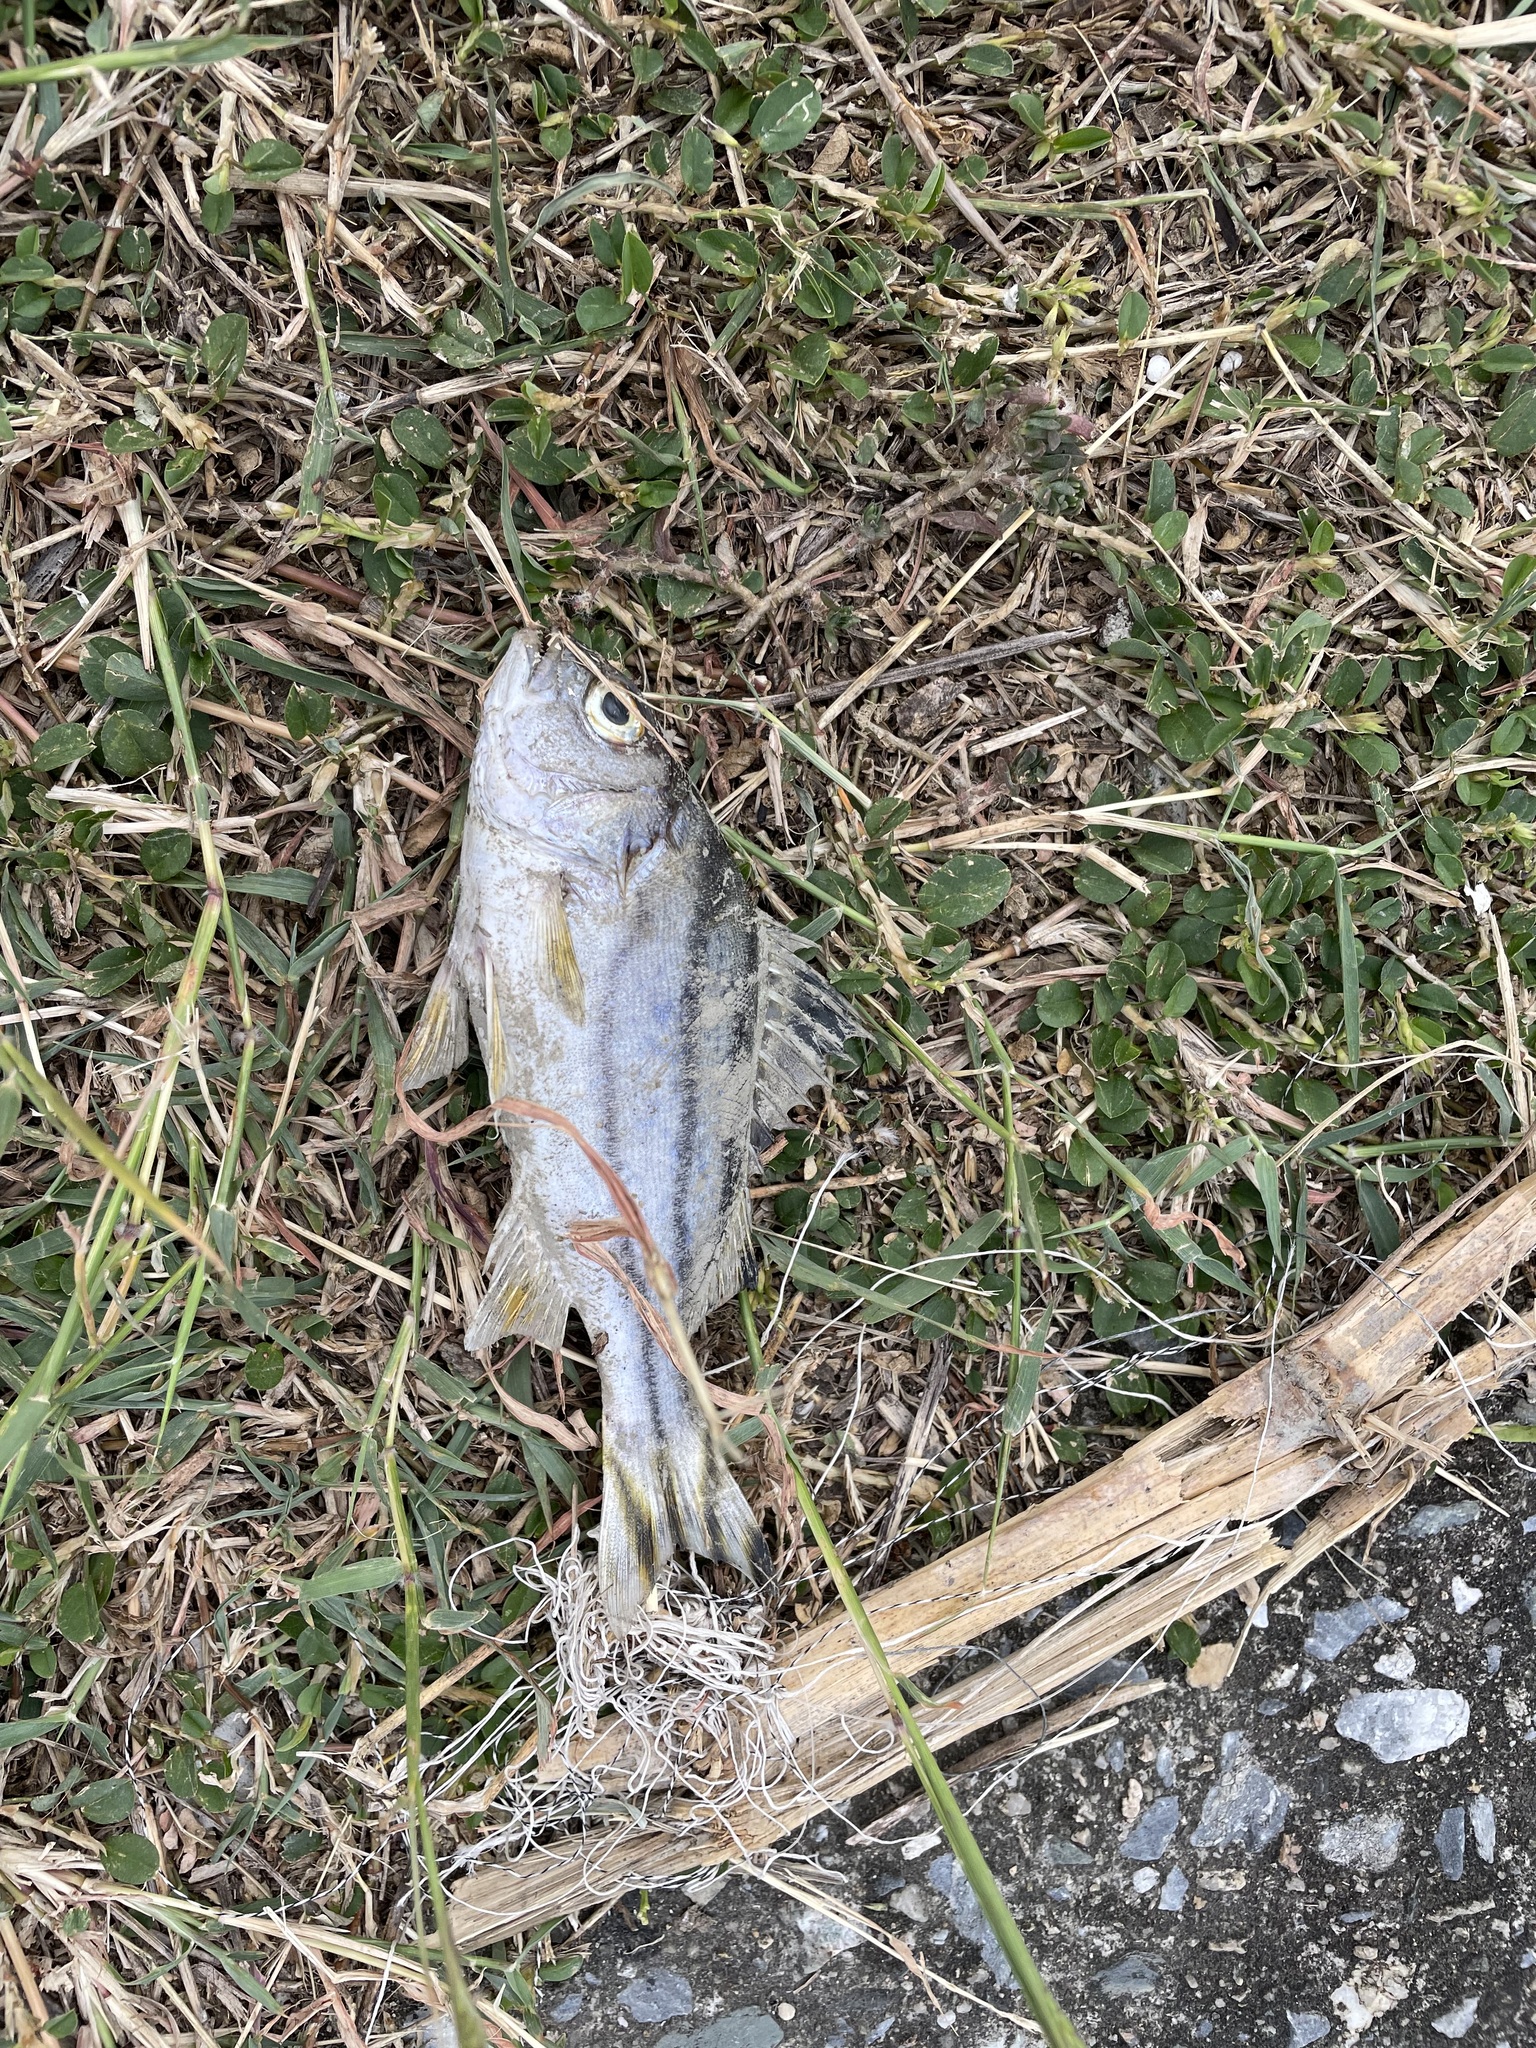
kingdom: Animalia
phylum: Chordata
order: Perciformes
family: Terapontidae
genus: Terapon
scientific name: Terapon jarbua
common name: Jarbua terapon
